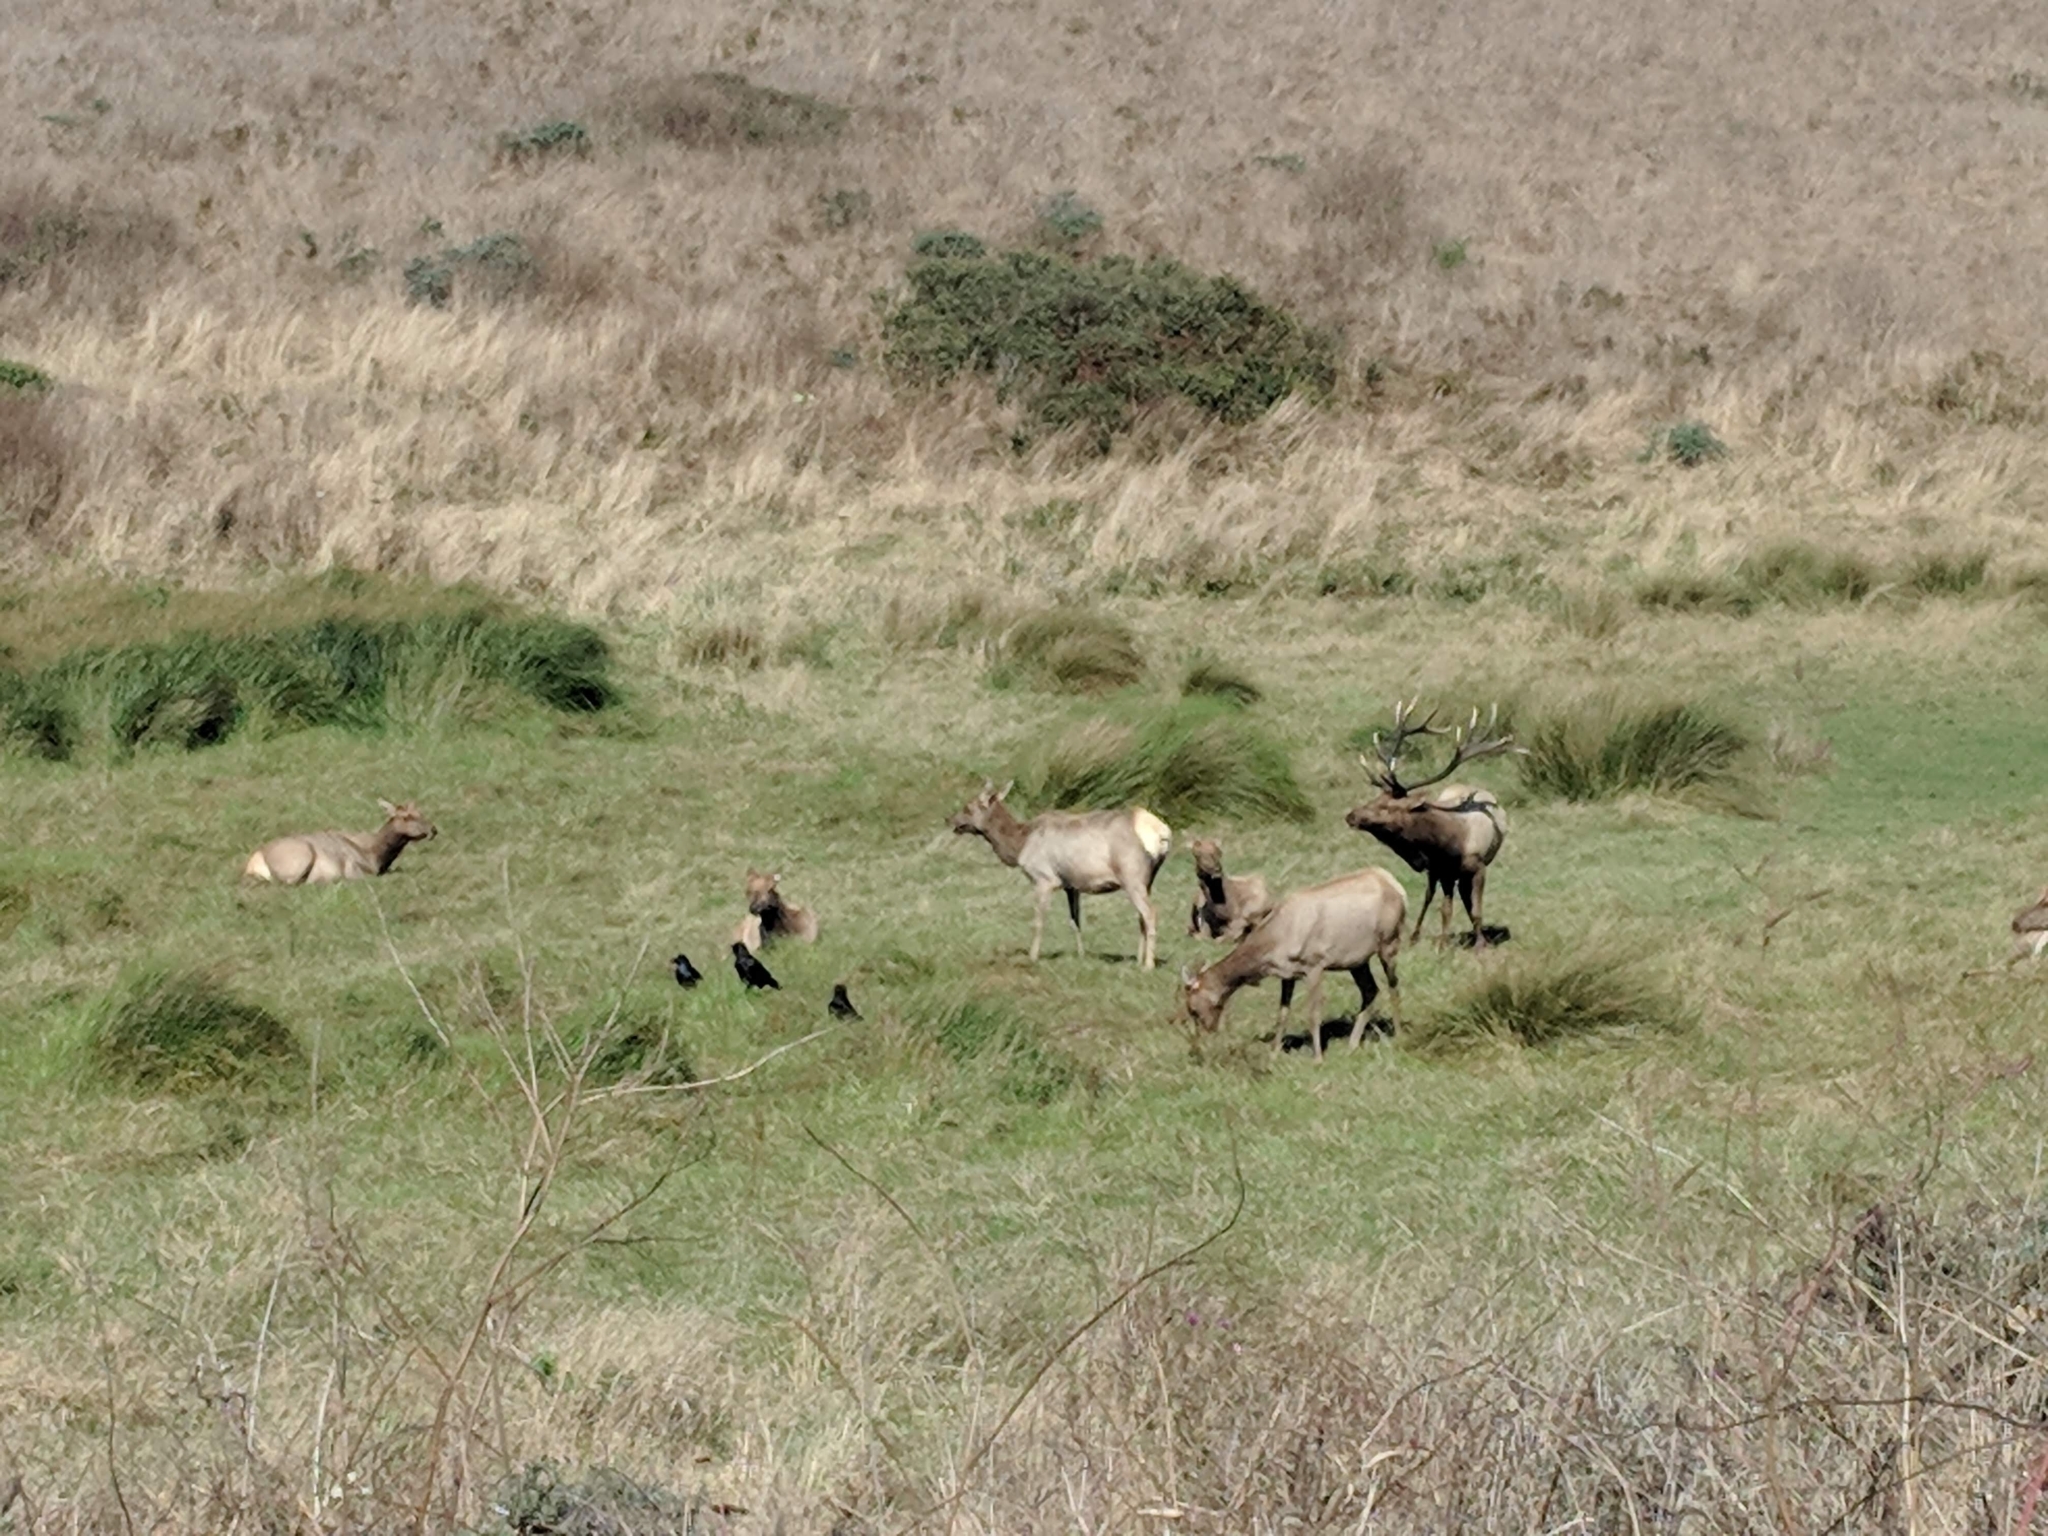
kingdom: Animalia
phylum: Chordata
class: Mammalia
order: Artiodactyla
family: Cervidae
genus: Cervus
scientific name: Cervus elaphus
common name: Red deer
